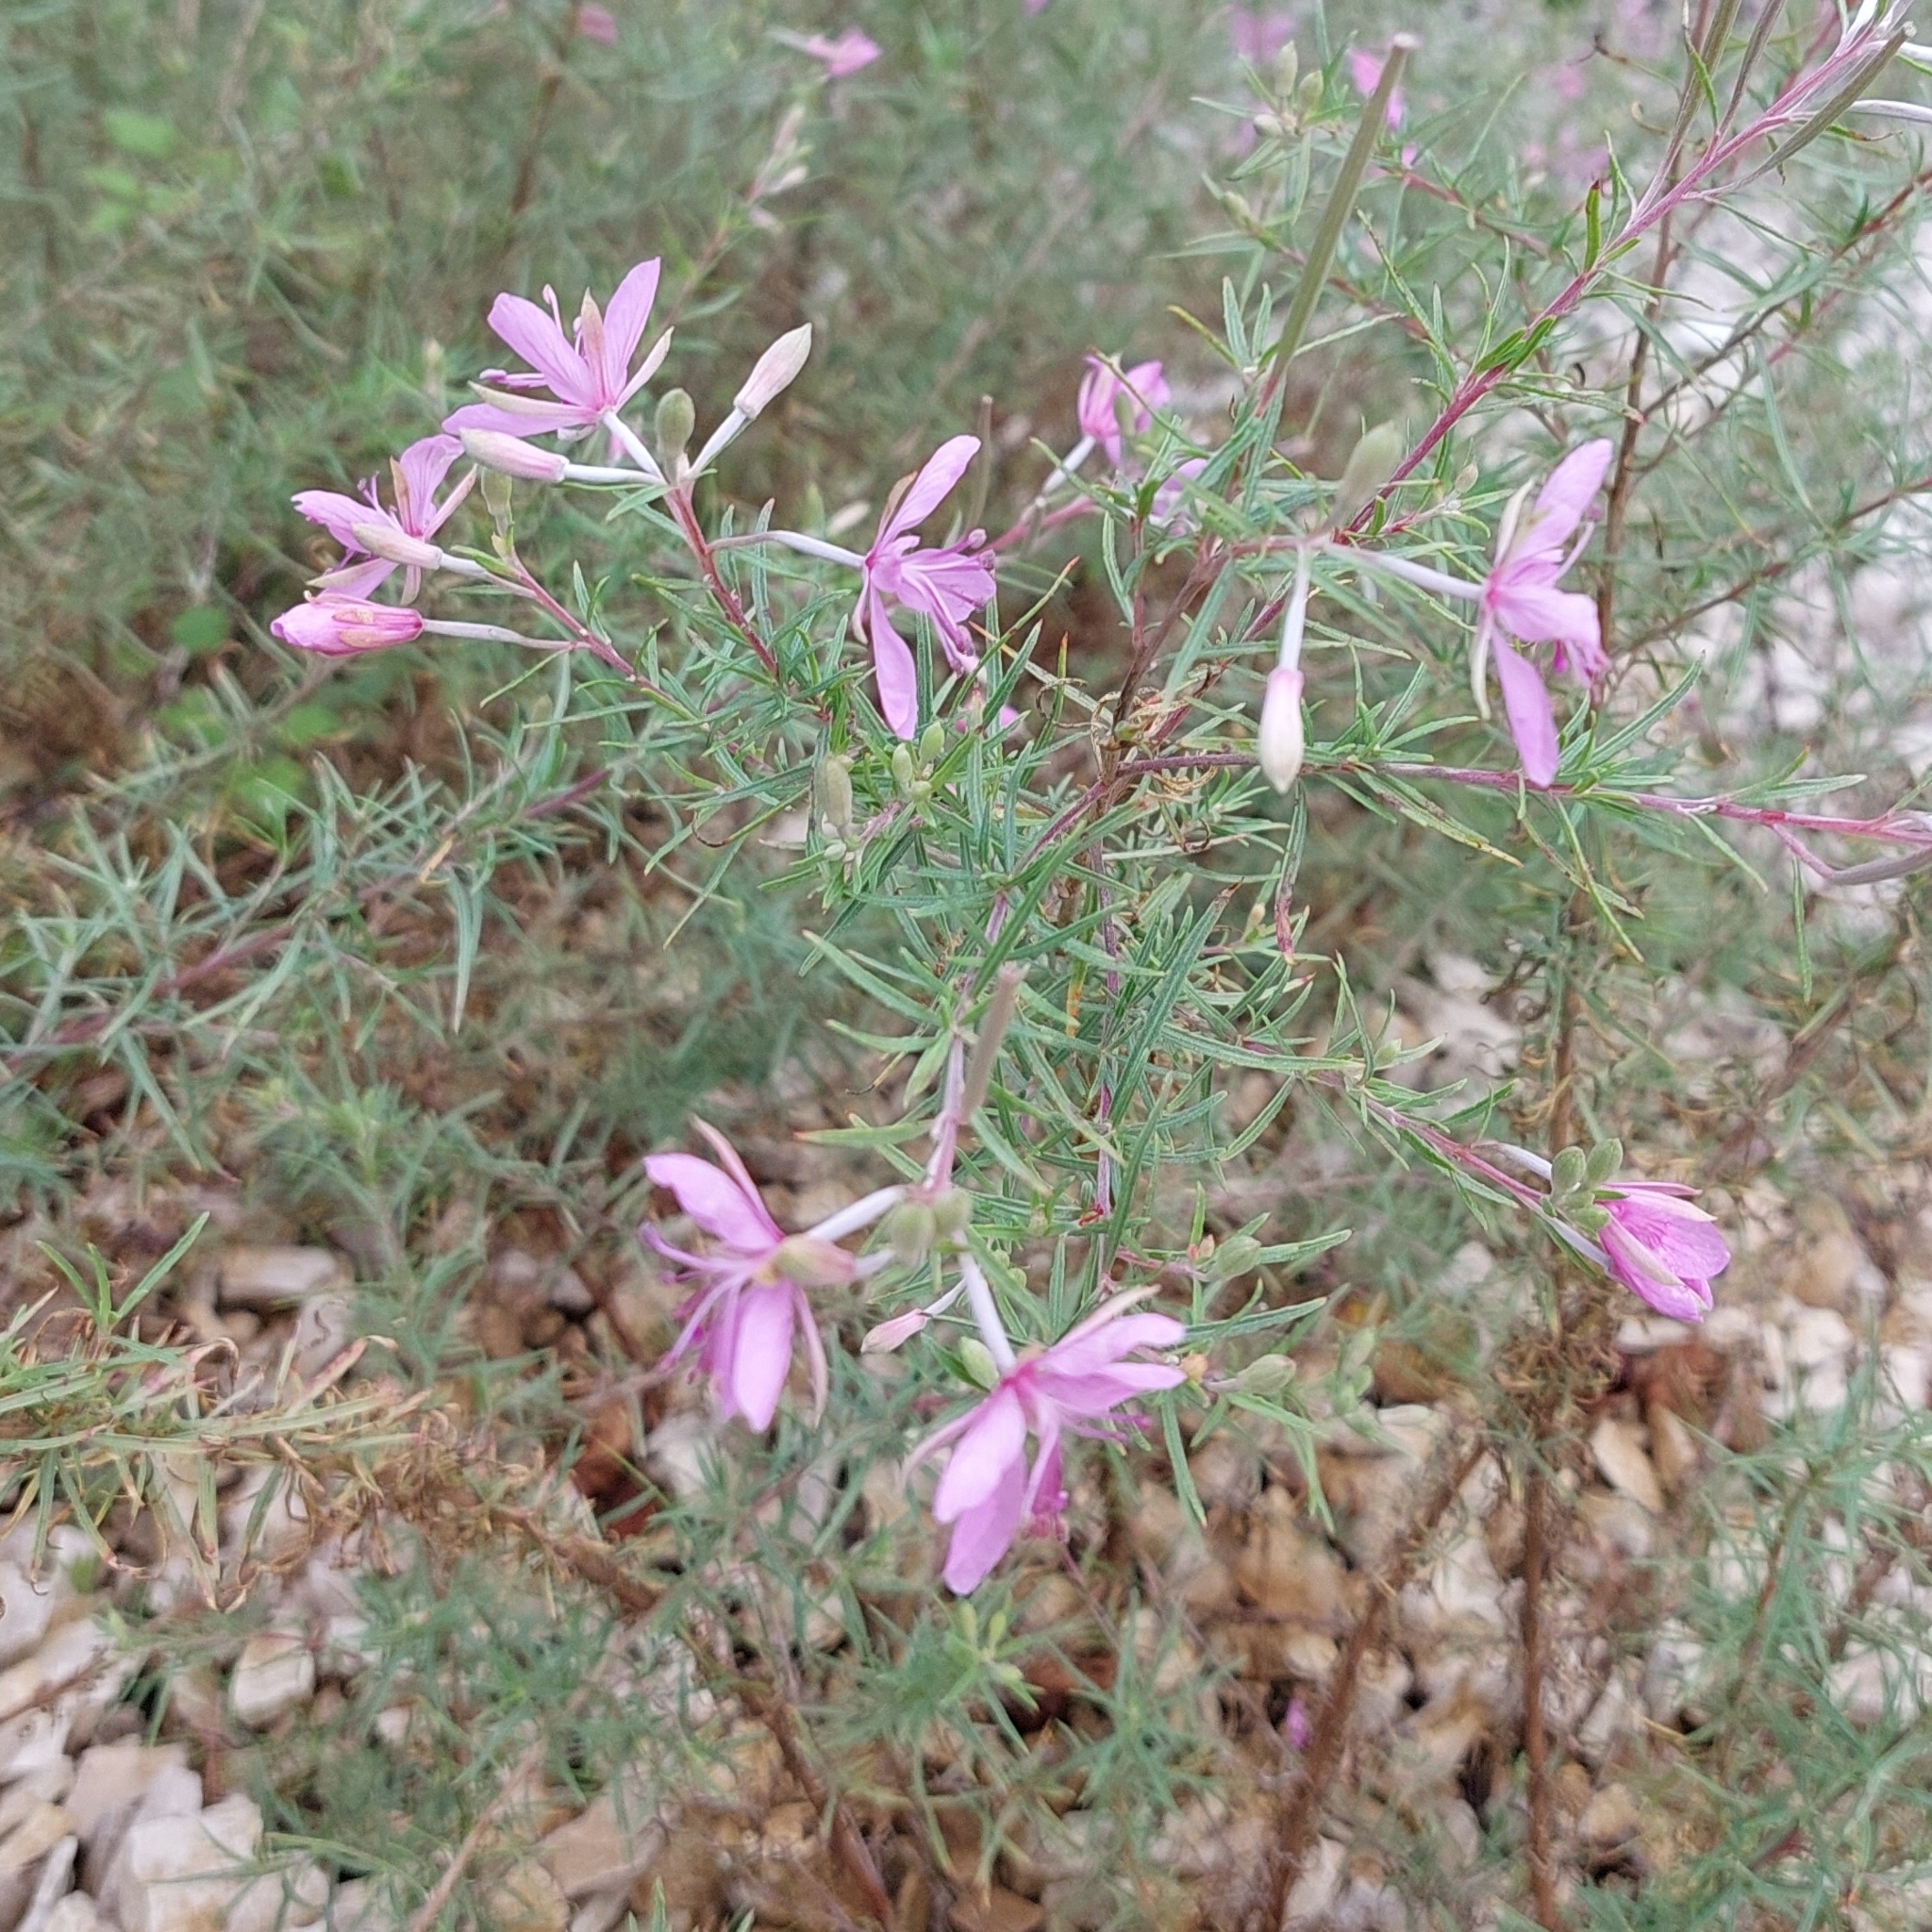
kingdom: Plantae
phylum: Tracheophyta
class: Magnoliopsida
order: Myrtales
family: Onagraceae
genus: Chamaenerion
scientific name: Chamaenerion dodonaei
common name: Rosemary-leaved willowherb
